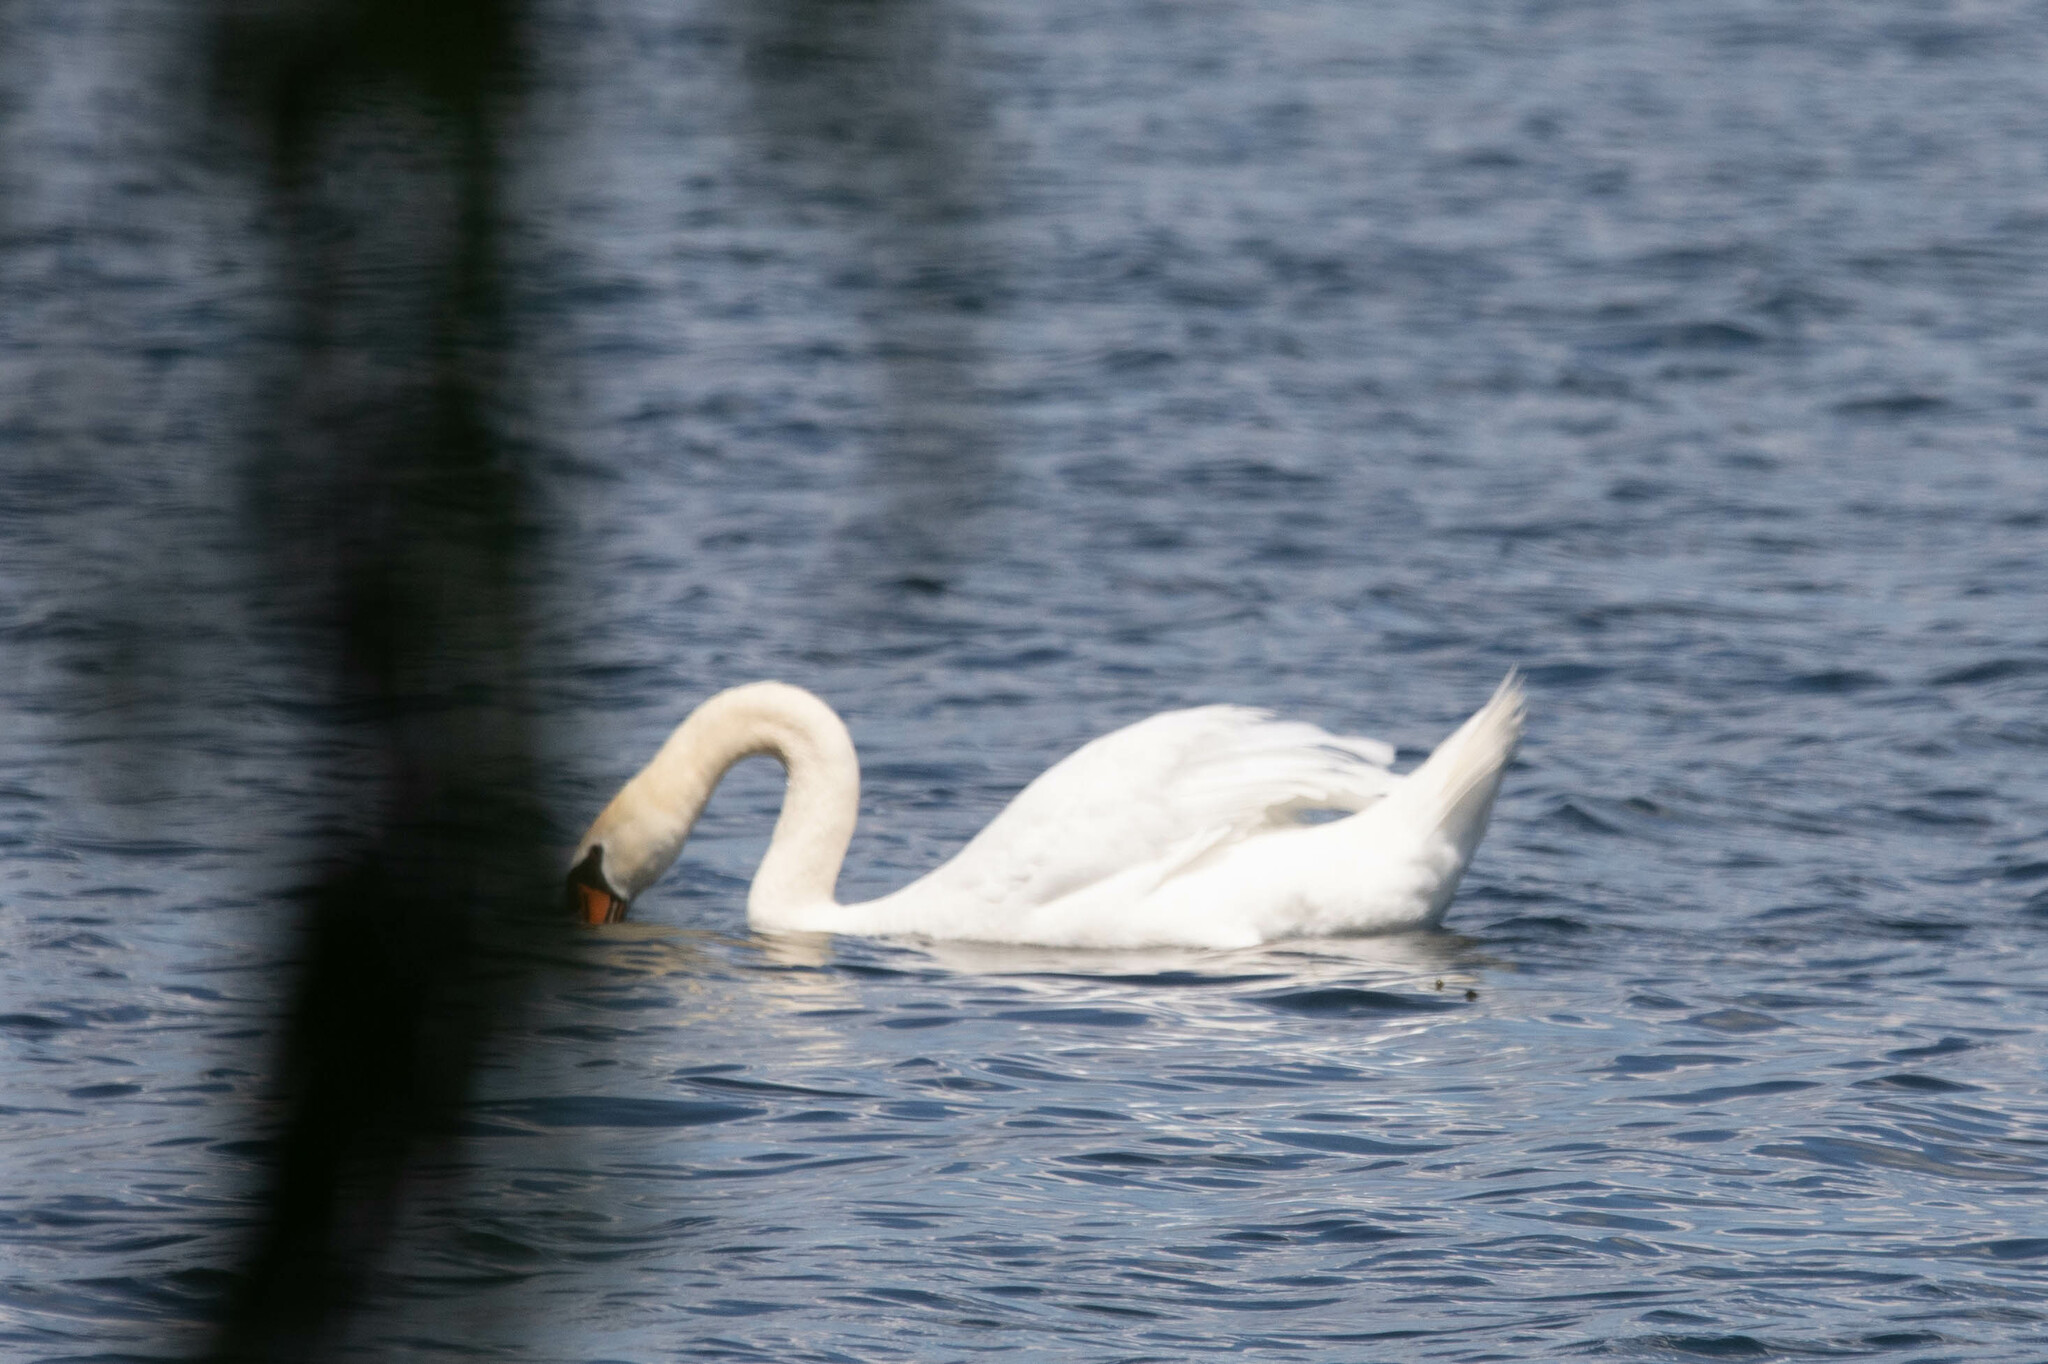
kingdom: Animalia
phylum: Chordata
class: Aves
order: Anseriformes
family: Anatidae
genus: Cygnus
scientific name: Cygnus olor
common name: Mute swan
